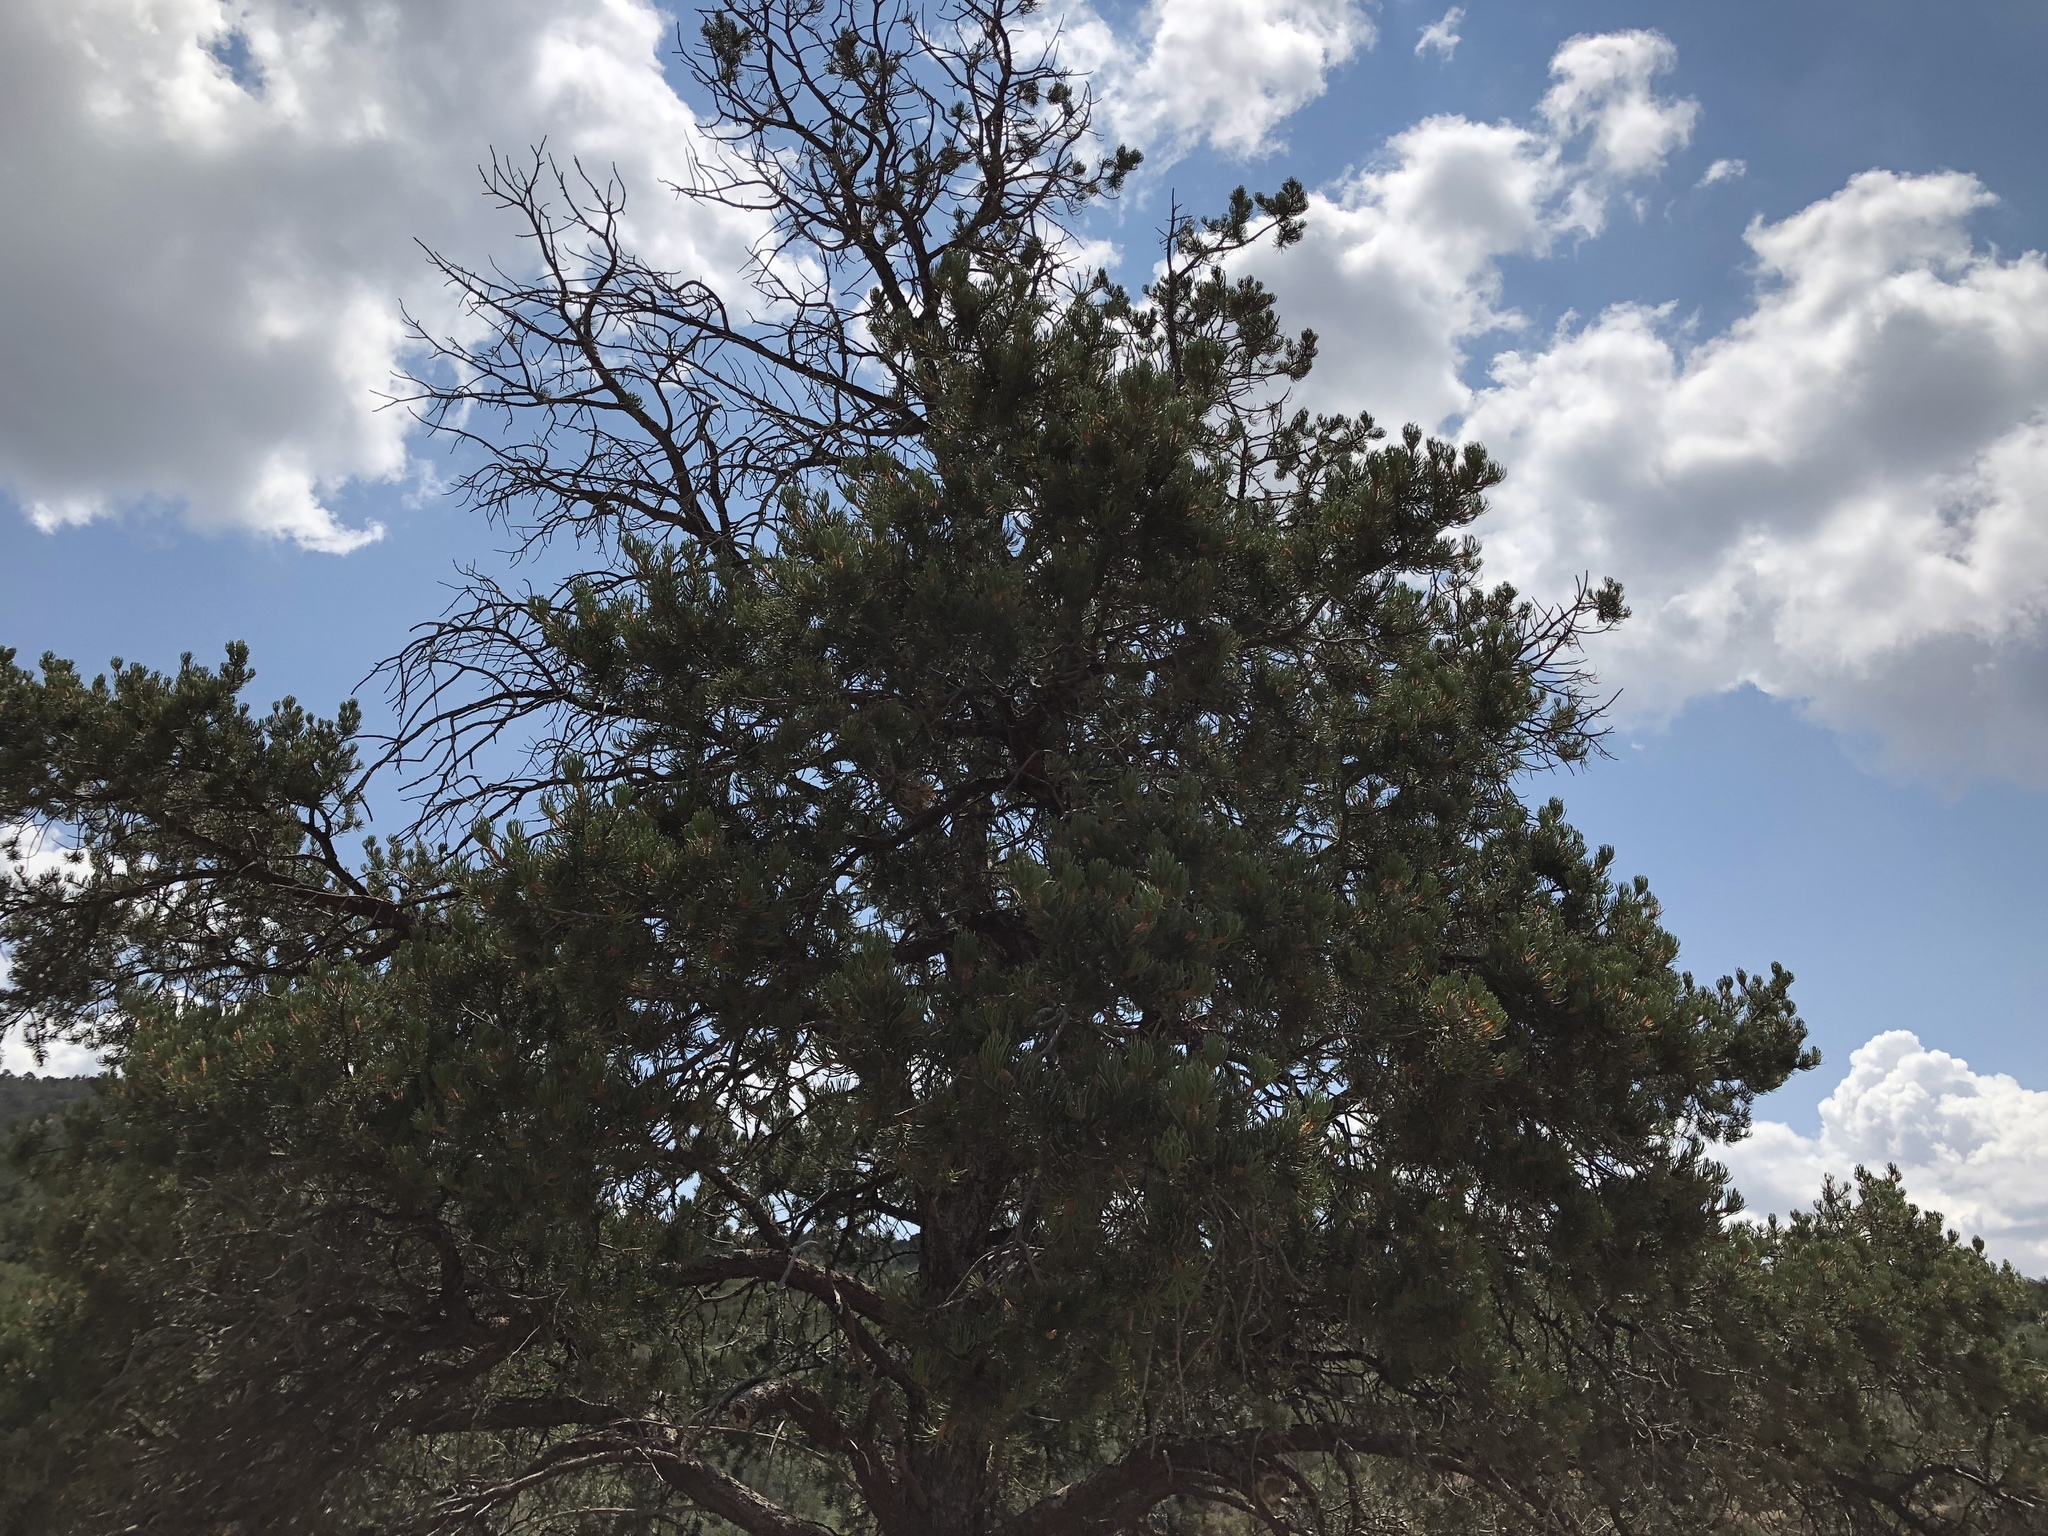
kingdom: Plantae
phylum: Tracheophyta
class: Pinopsida
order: Pinales
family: Pinaceae
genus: Pinus
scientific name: Pinus edulis
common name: Colorado pinyon
